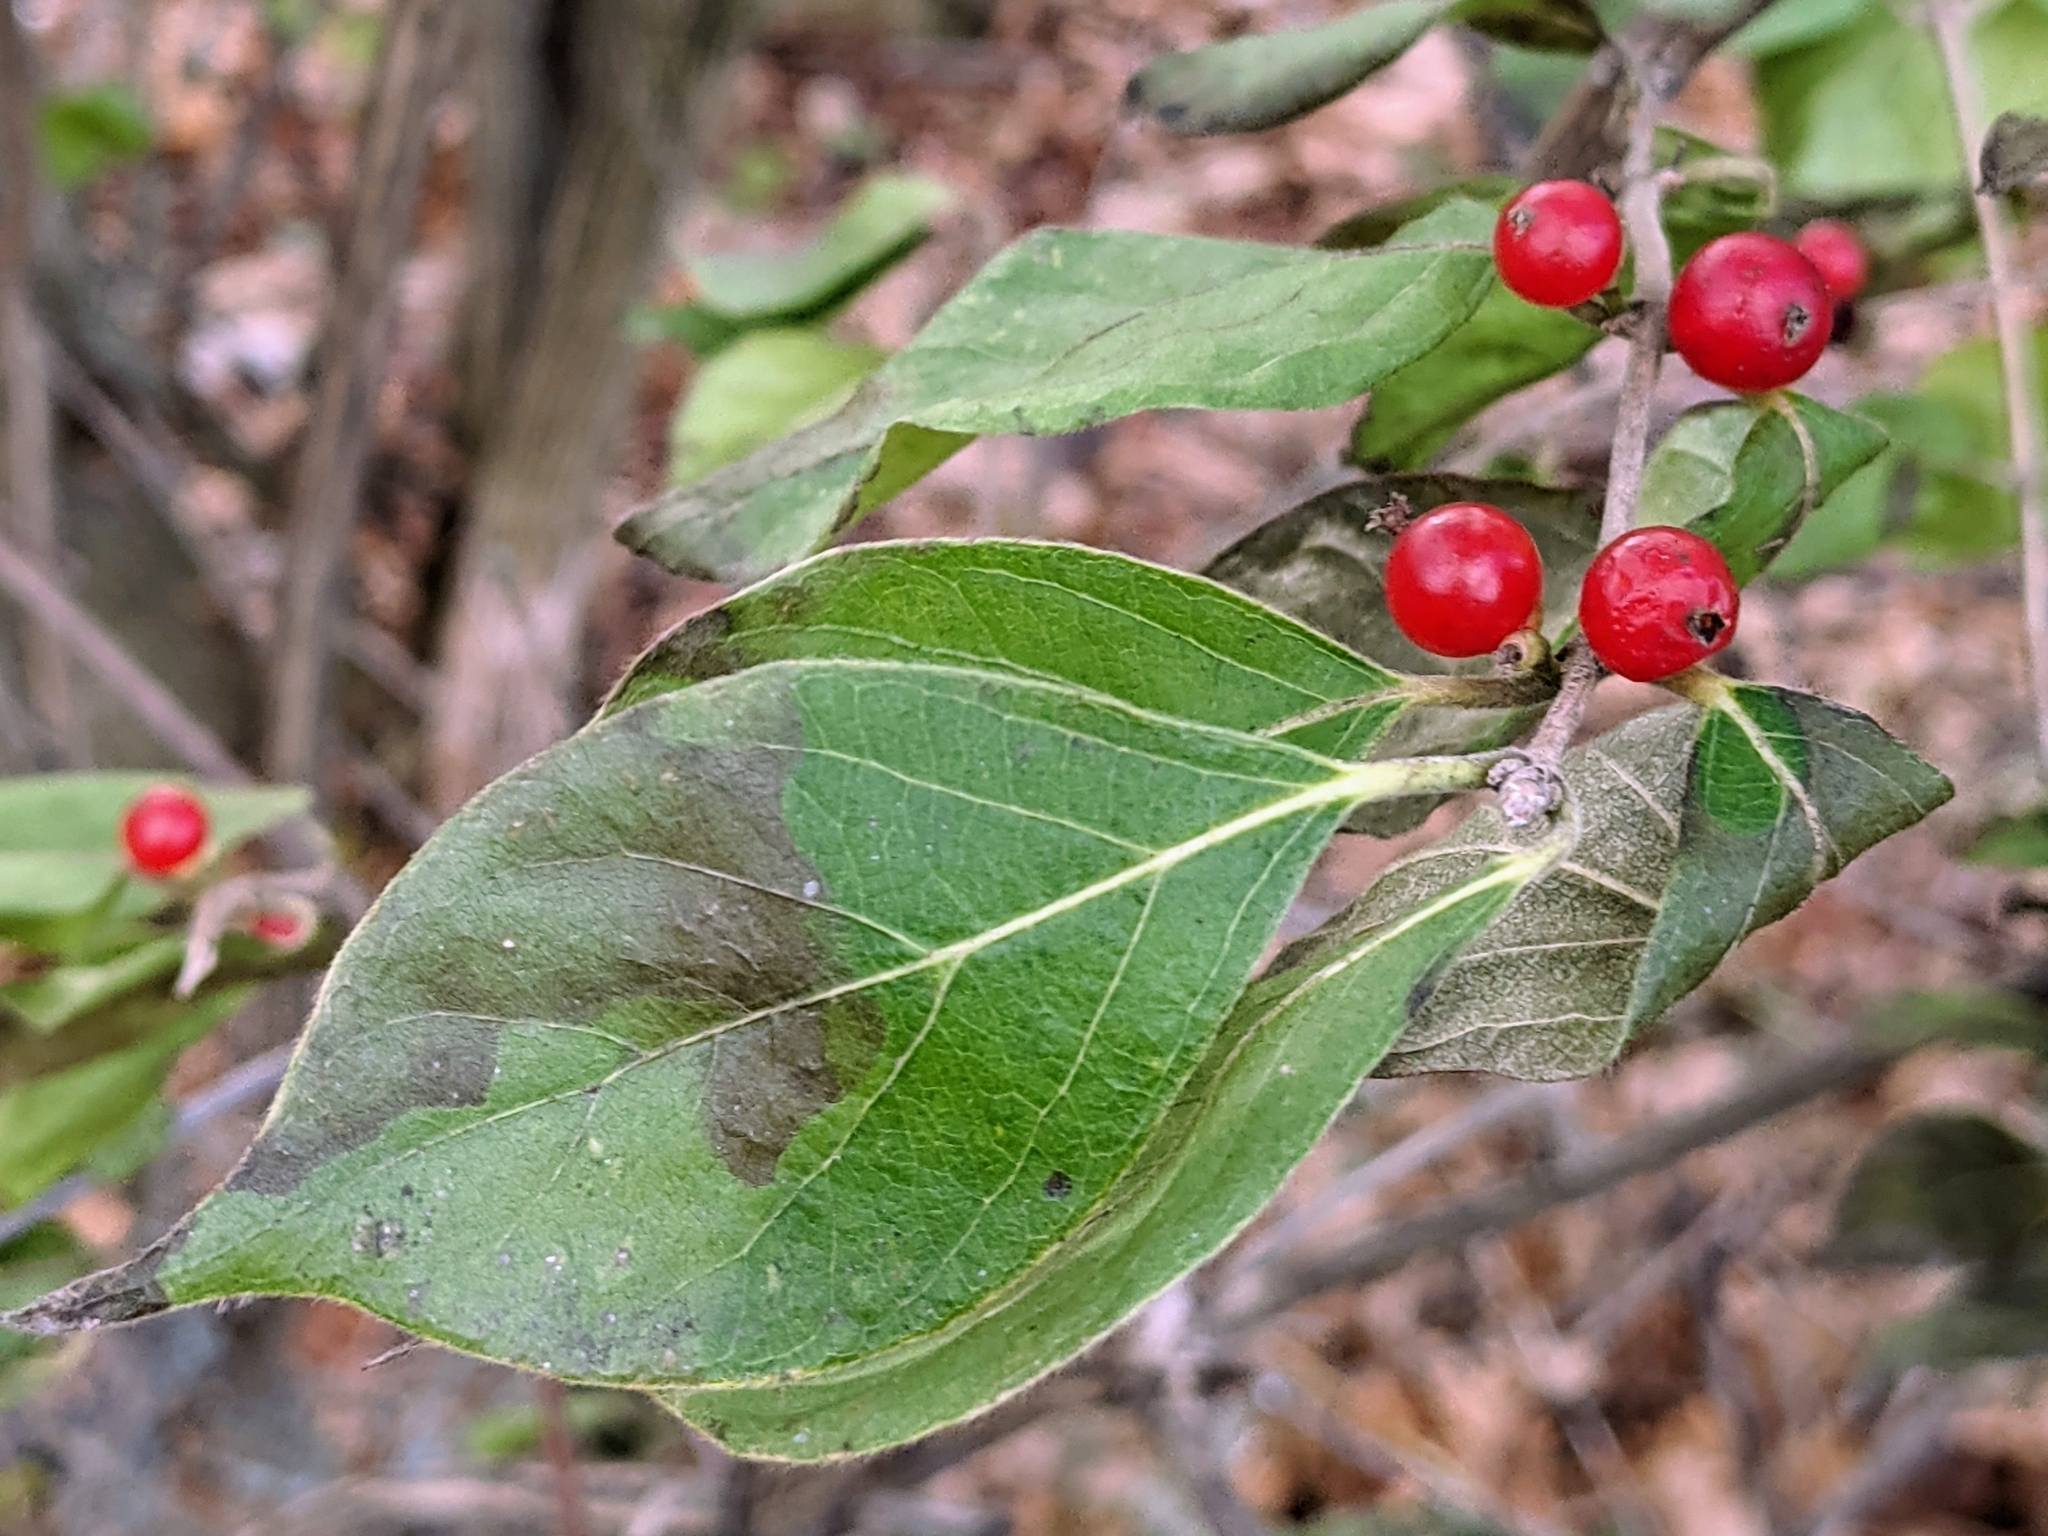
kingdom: Plantae
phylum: Tracheophyta
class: Magnoliopsida
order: Dipsacales
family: Caprifoliaceae
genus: Lonicera
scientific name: Lonicera maackii
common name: Amur honeysuckle
